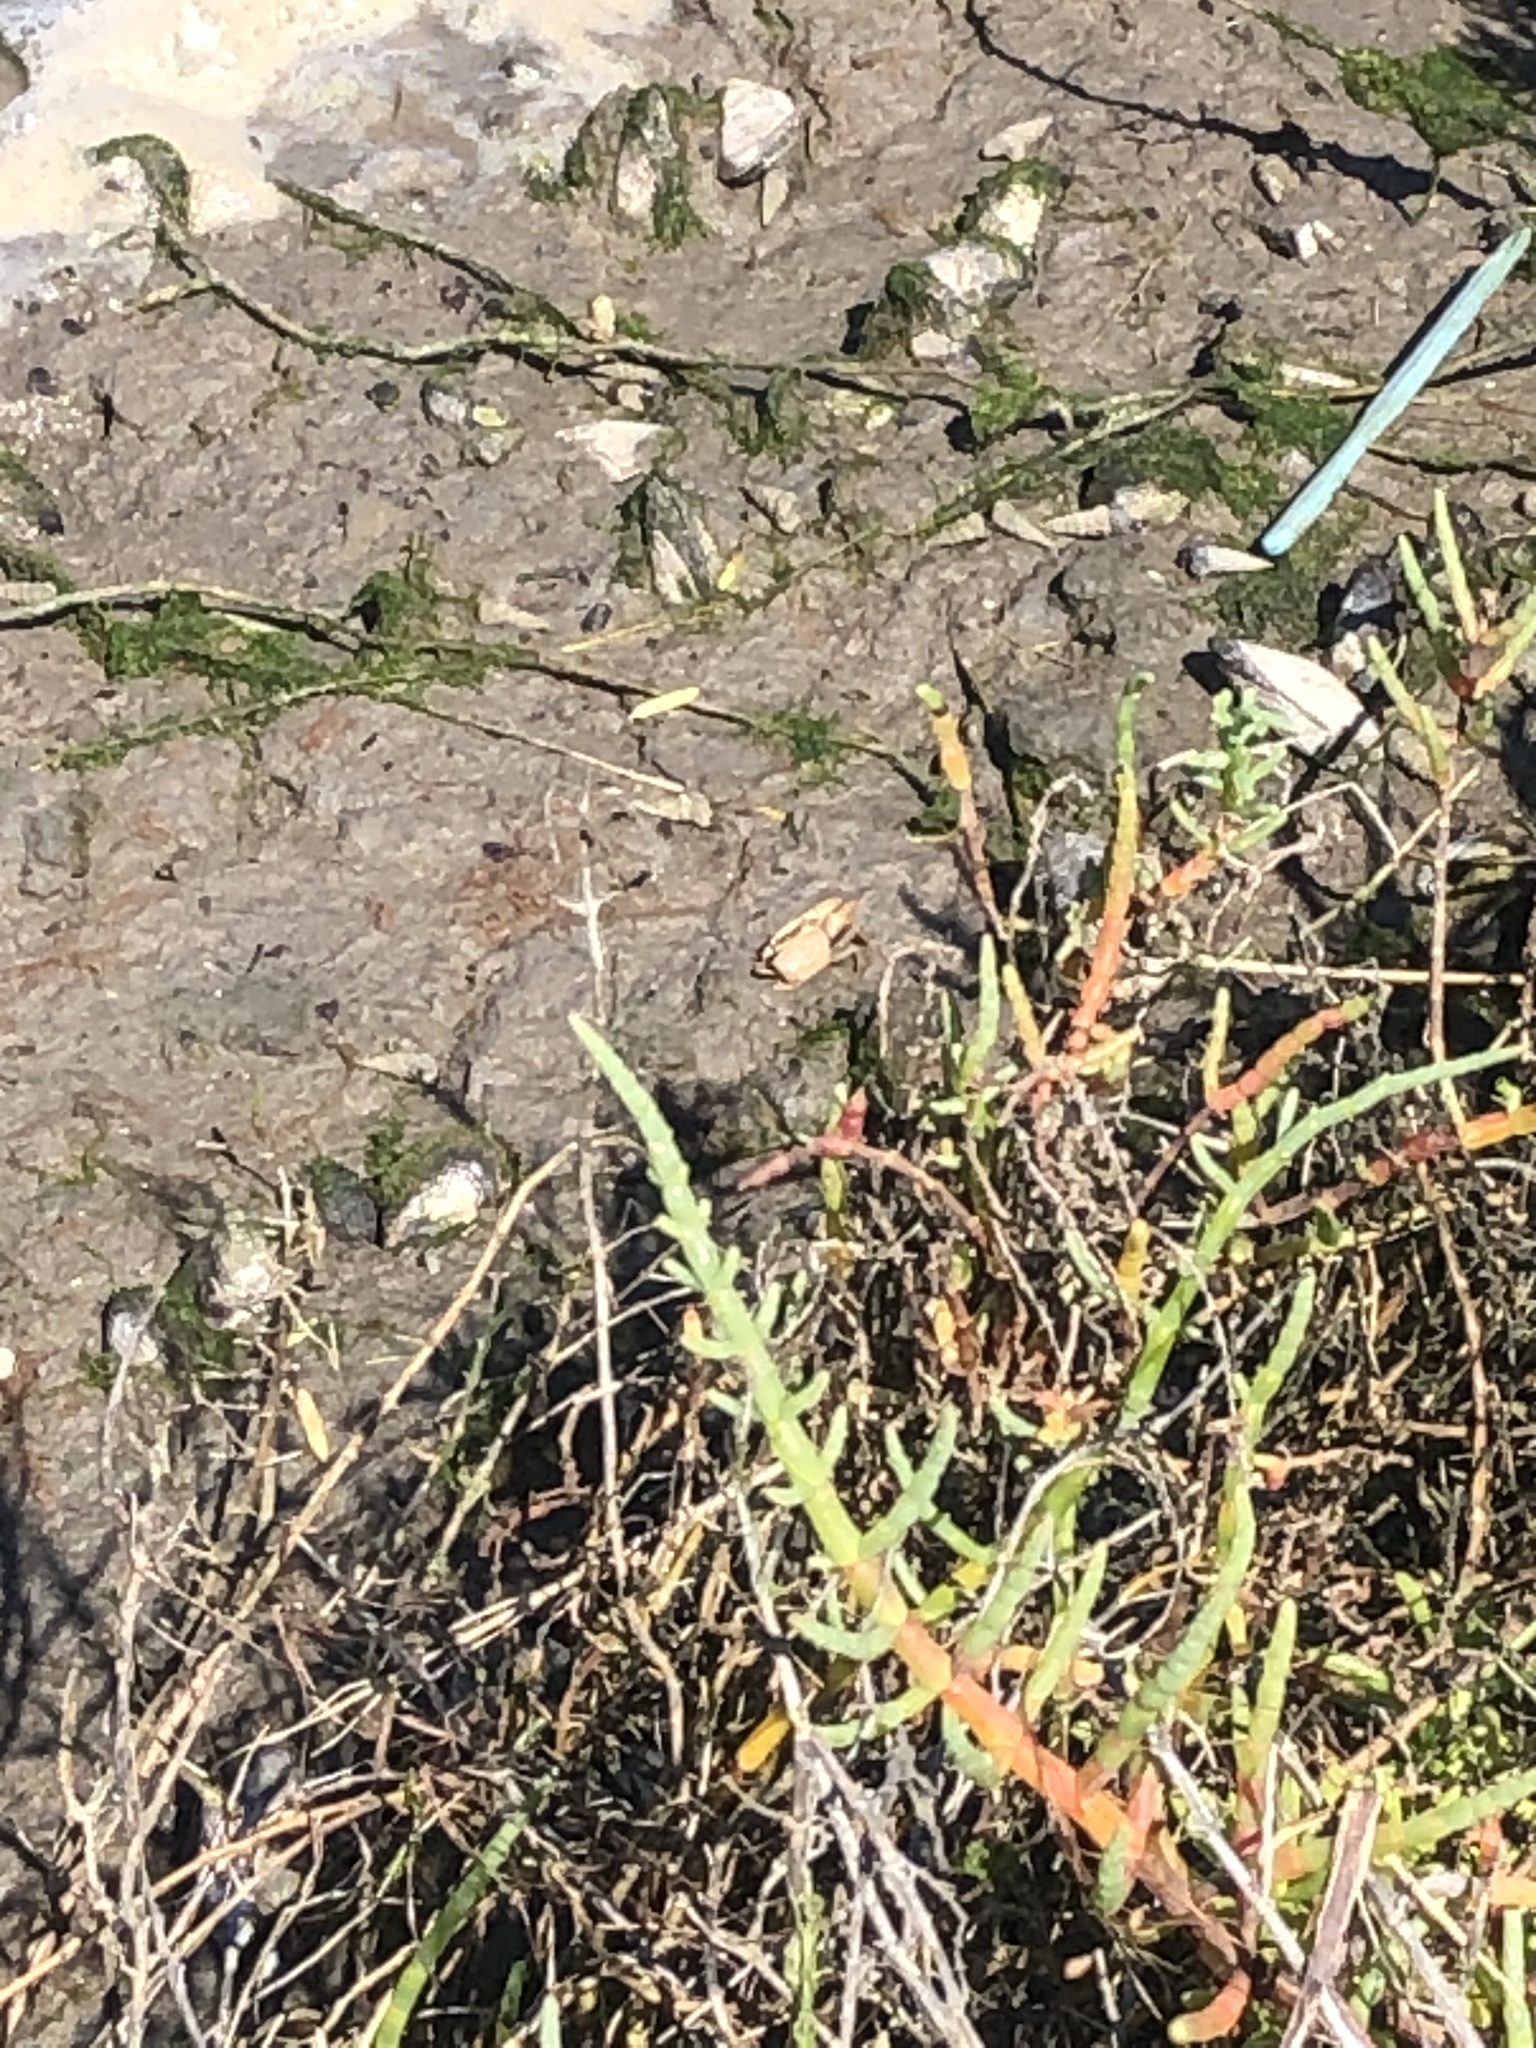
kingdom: Animalia
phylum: Arthropoda
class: Malacostraca
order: Decapoda
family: Ocypodidae
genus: Leptuca
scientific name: Leptuca crenulata
